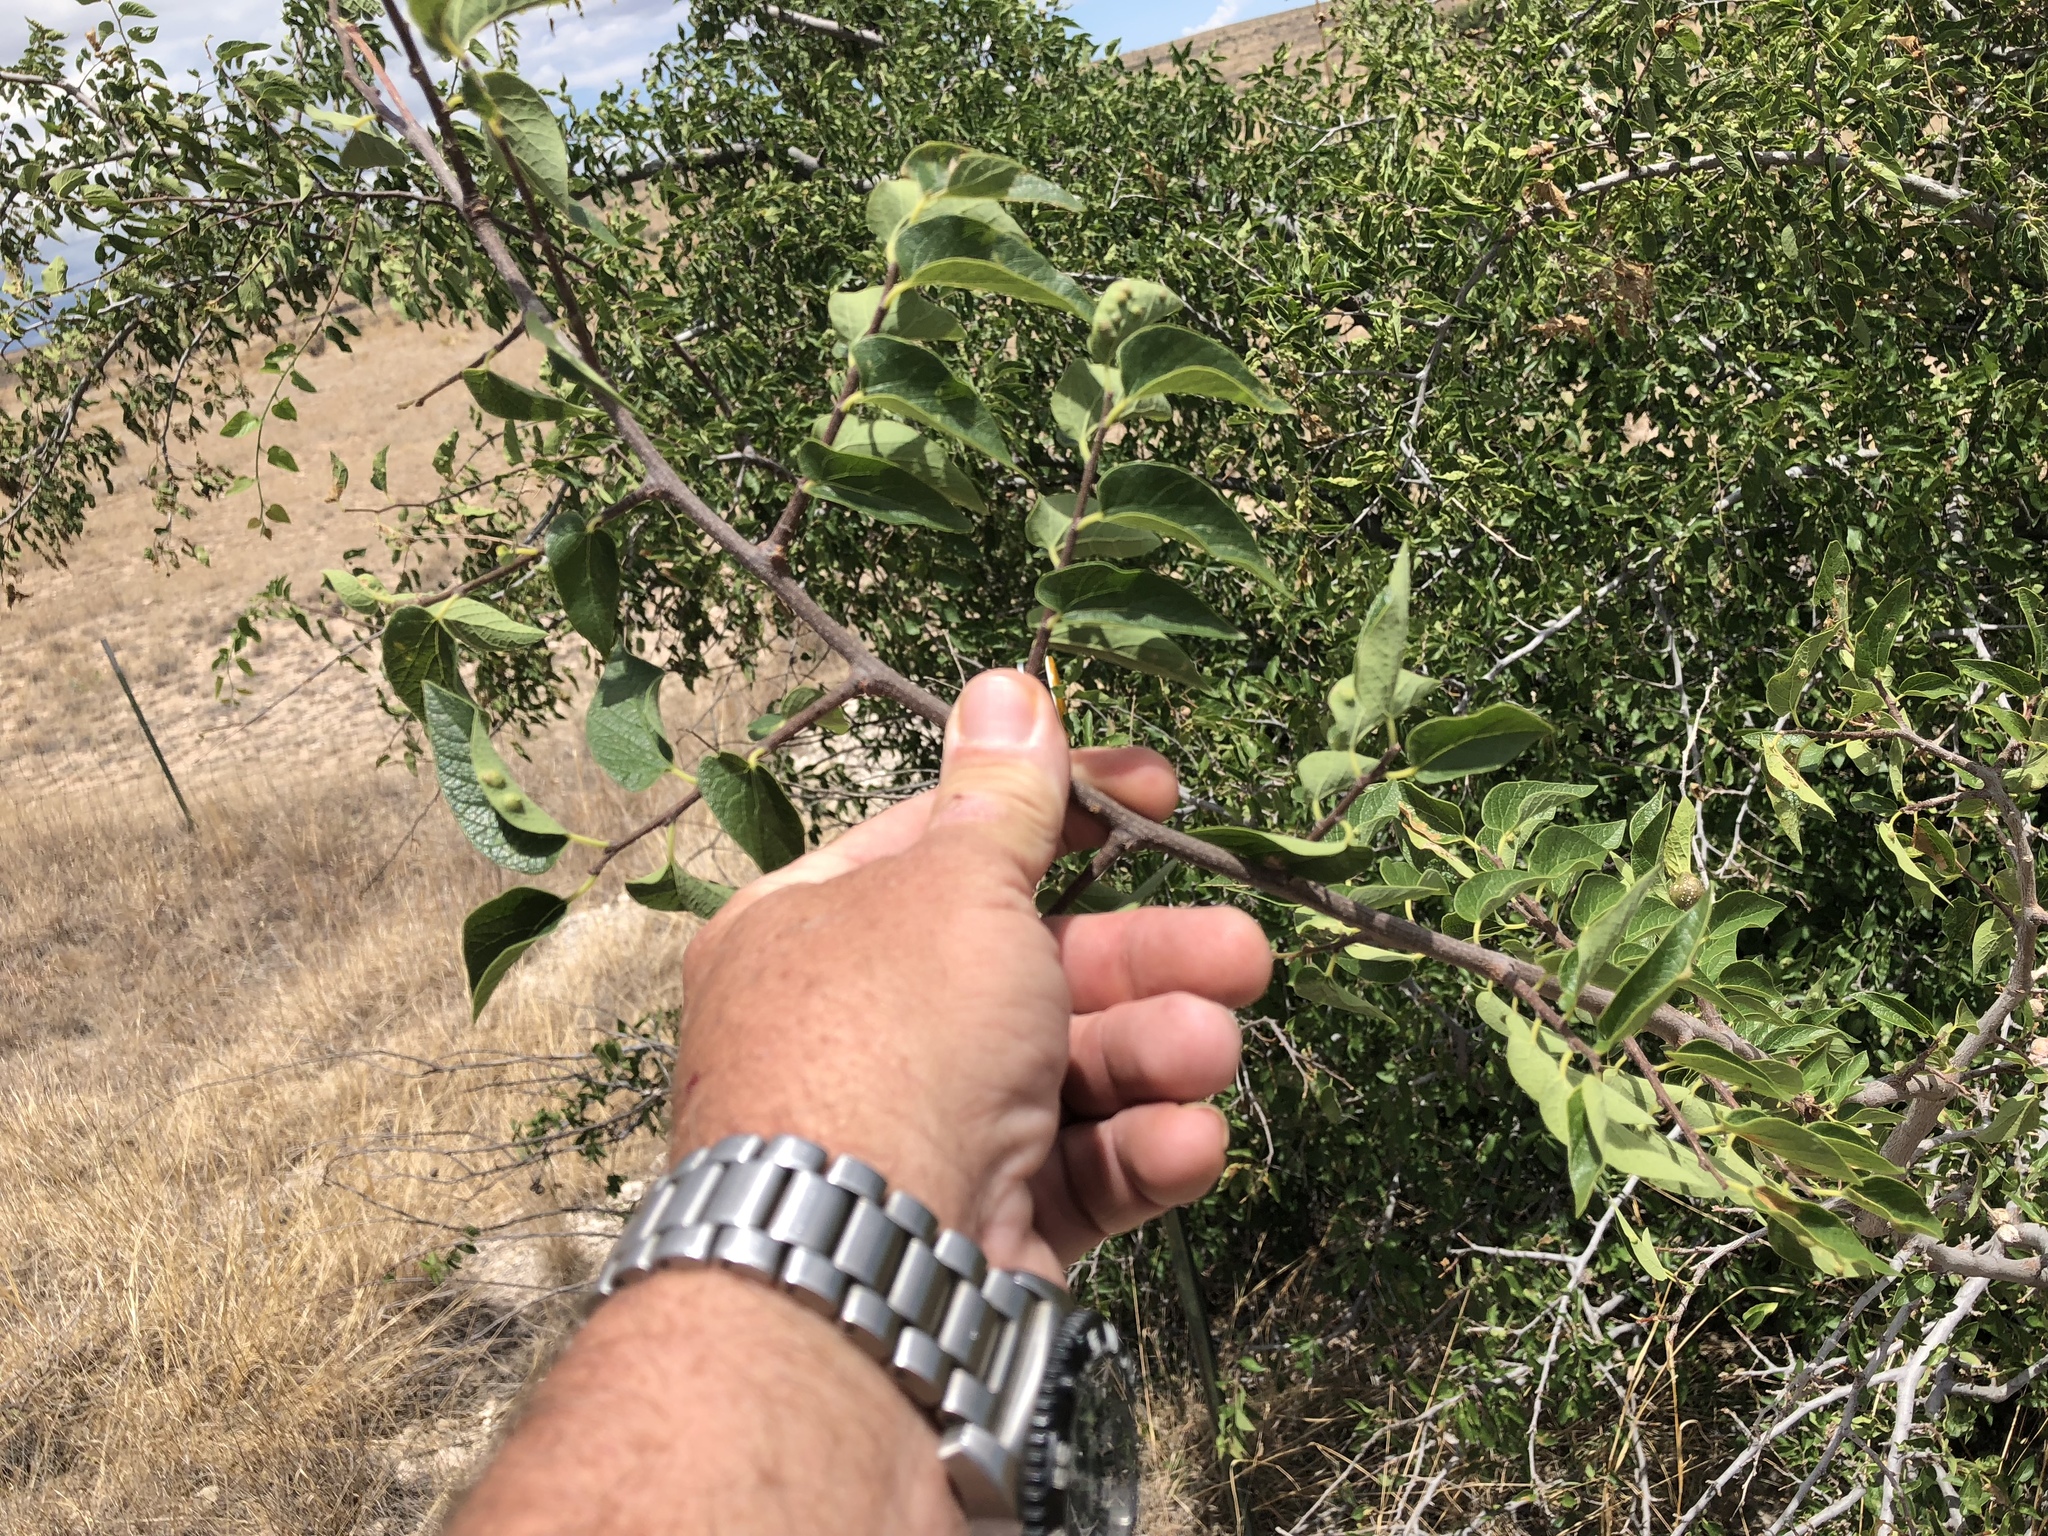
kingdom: Plantae
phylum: Tracheophyta
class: Magnoliopsida
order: Rosales
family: Cannabaceae
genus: Celtis
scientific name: Celtis reticulata
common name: Netleaf hackberry
